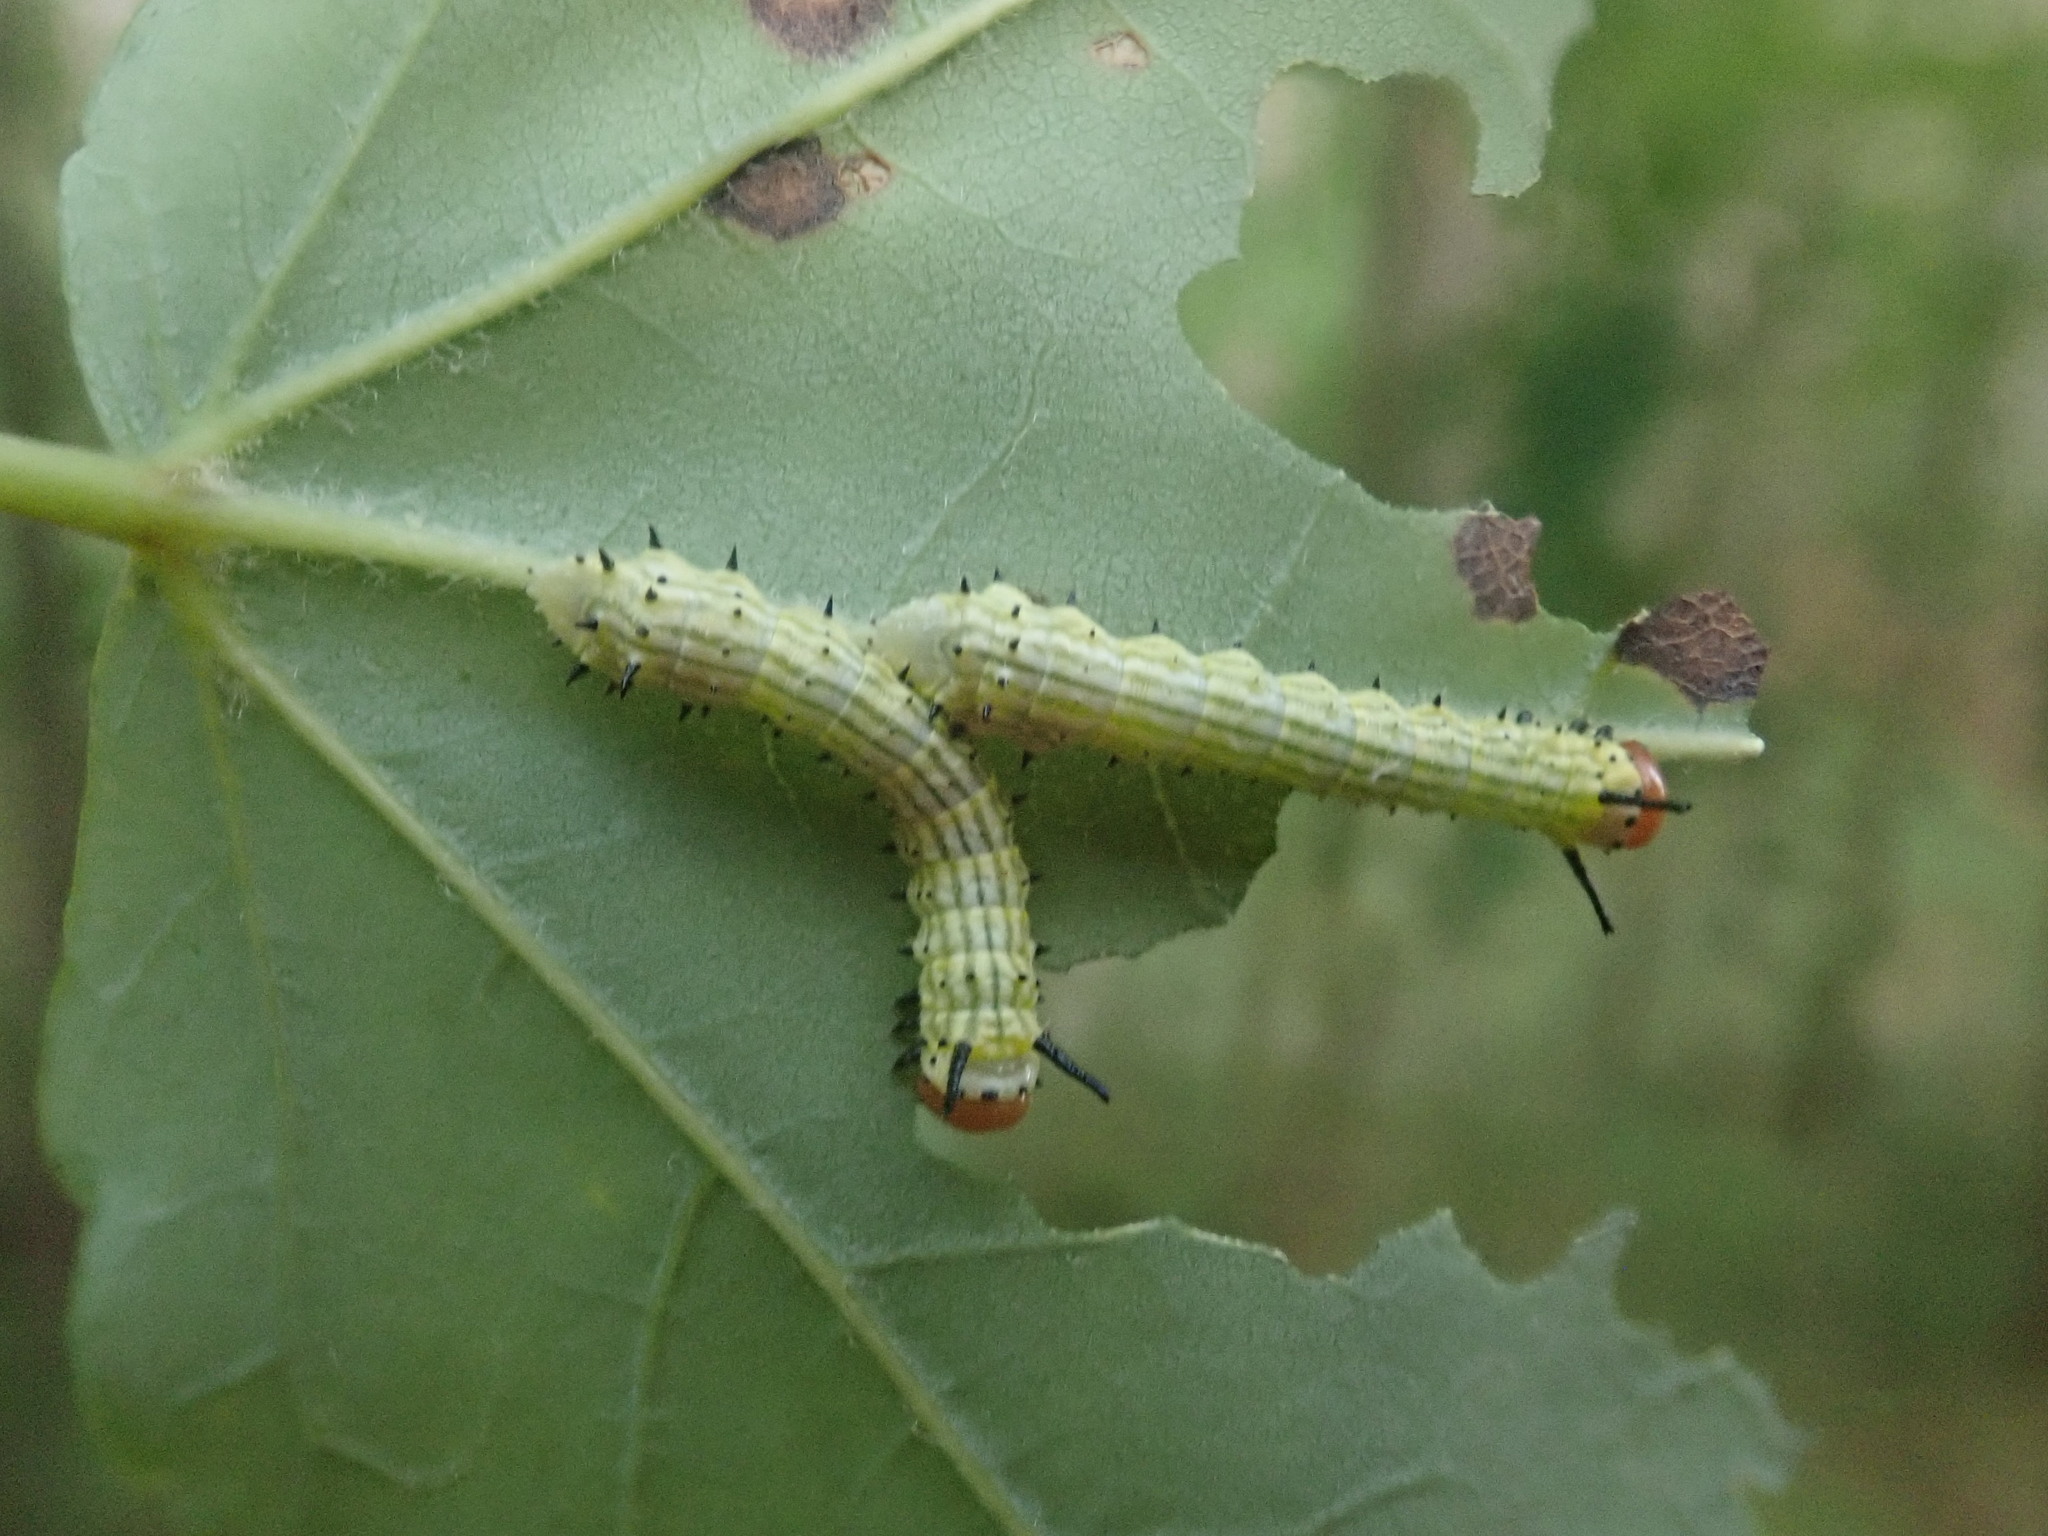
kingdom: Animalia
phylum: Arthropoda
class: Insecta
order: Lepidoptera
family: Saturniidae
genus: Dryocampa
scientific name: Dryocampa rubicunda
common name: Rosy maple moth
